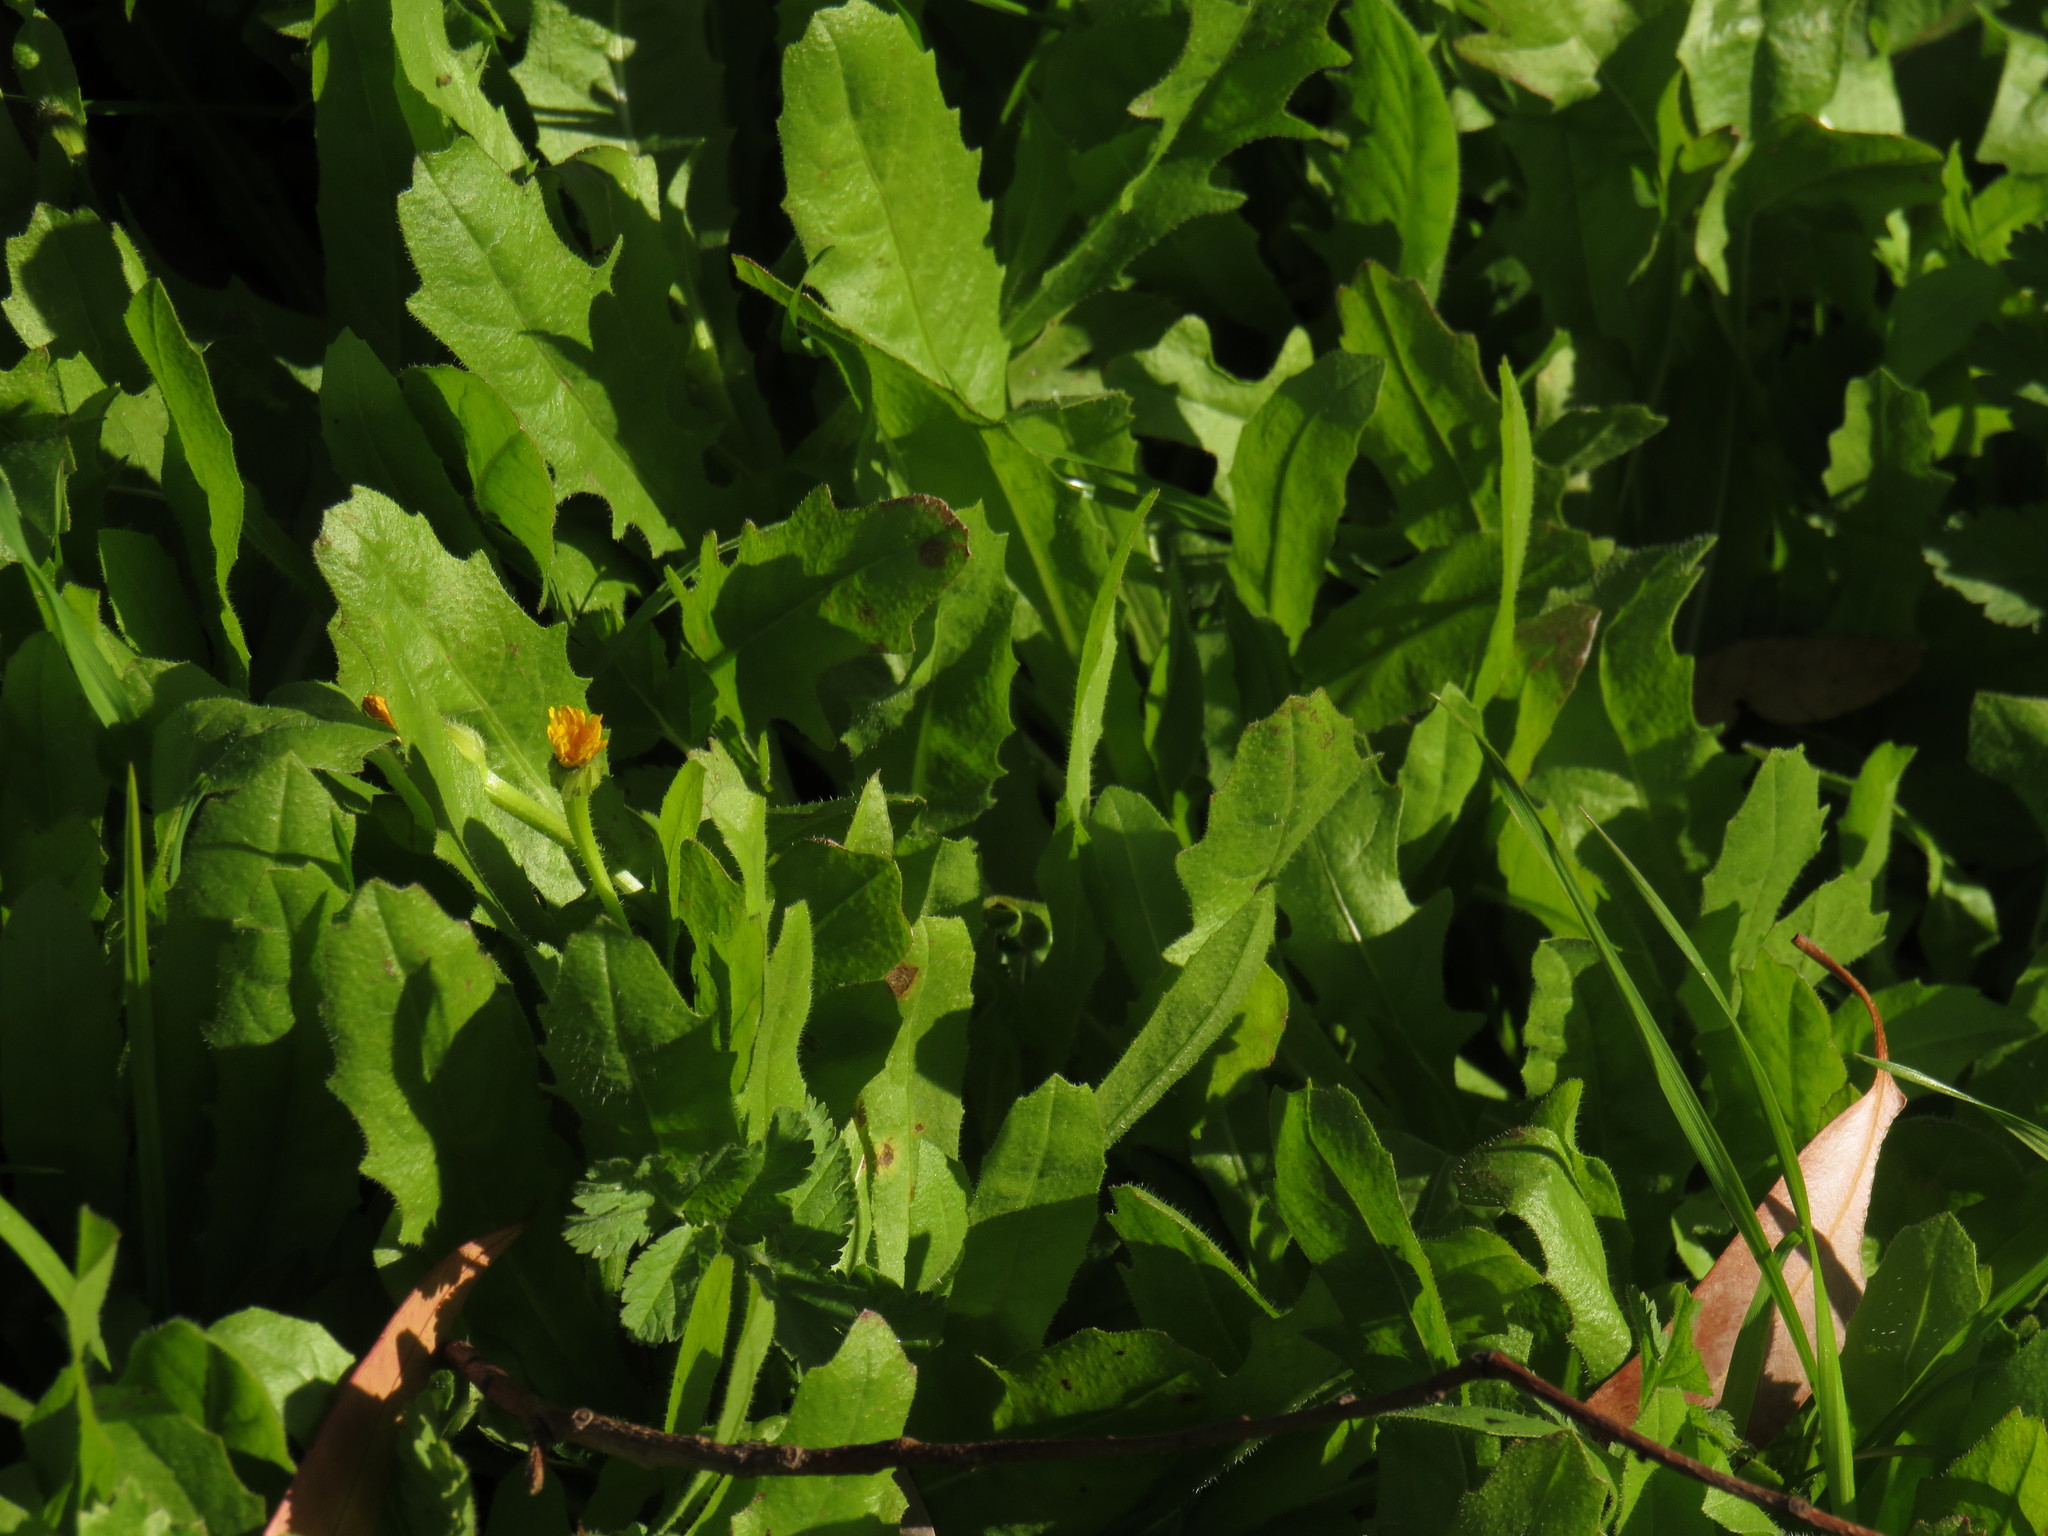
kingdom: Plantae
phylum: Tracheophyta
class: Magnoliopsida
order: Asterales
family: Asteraceae
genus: Hedypnois
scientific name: Hedypnois rhagadioloides
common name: Cretan weed
